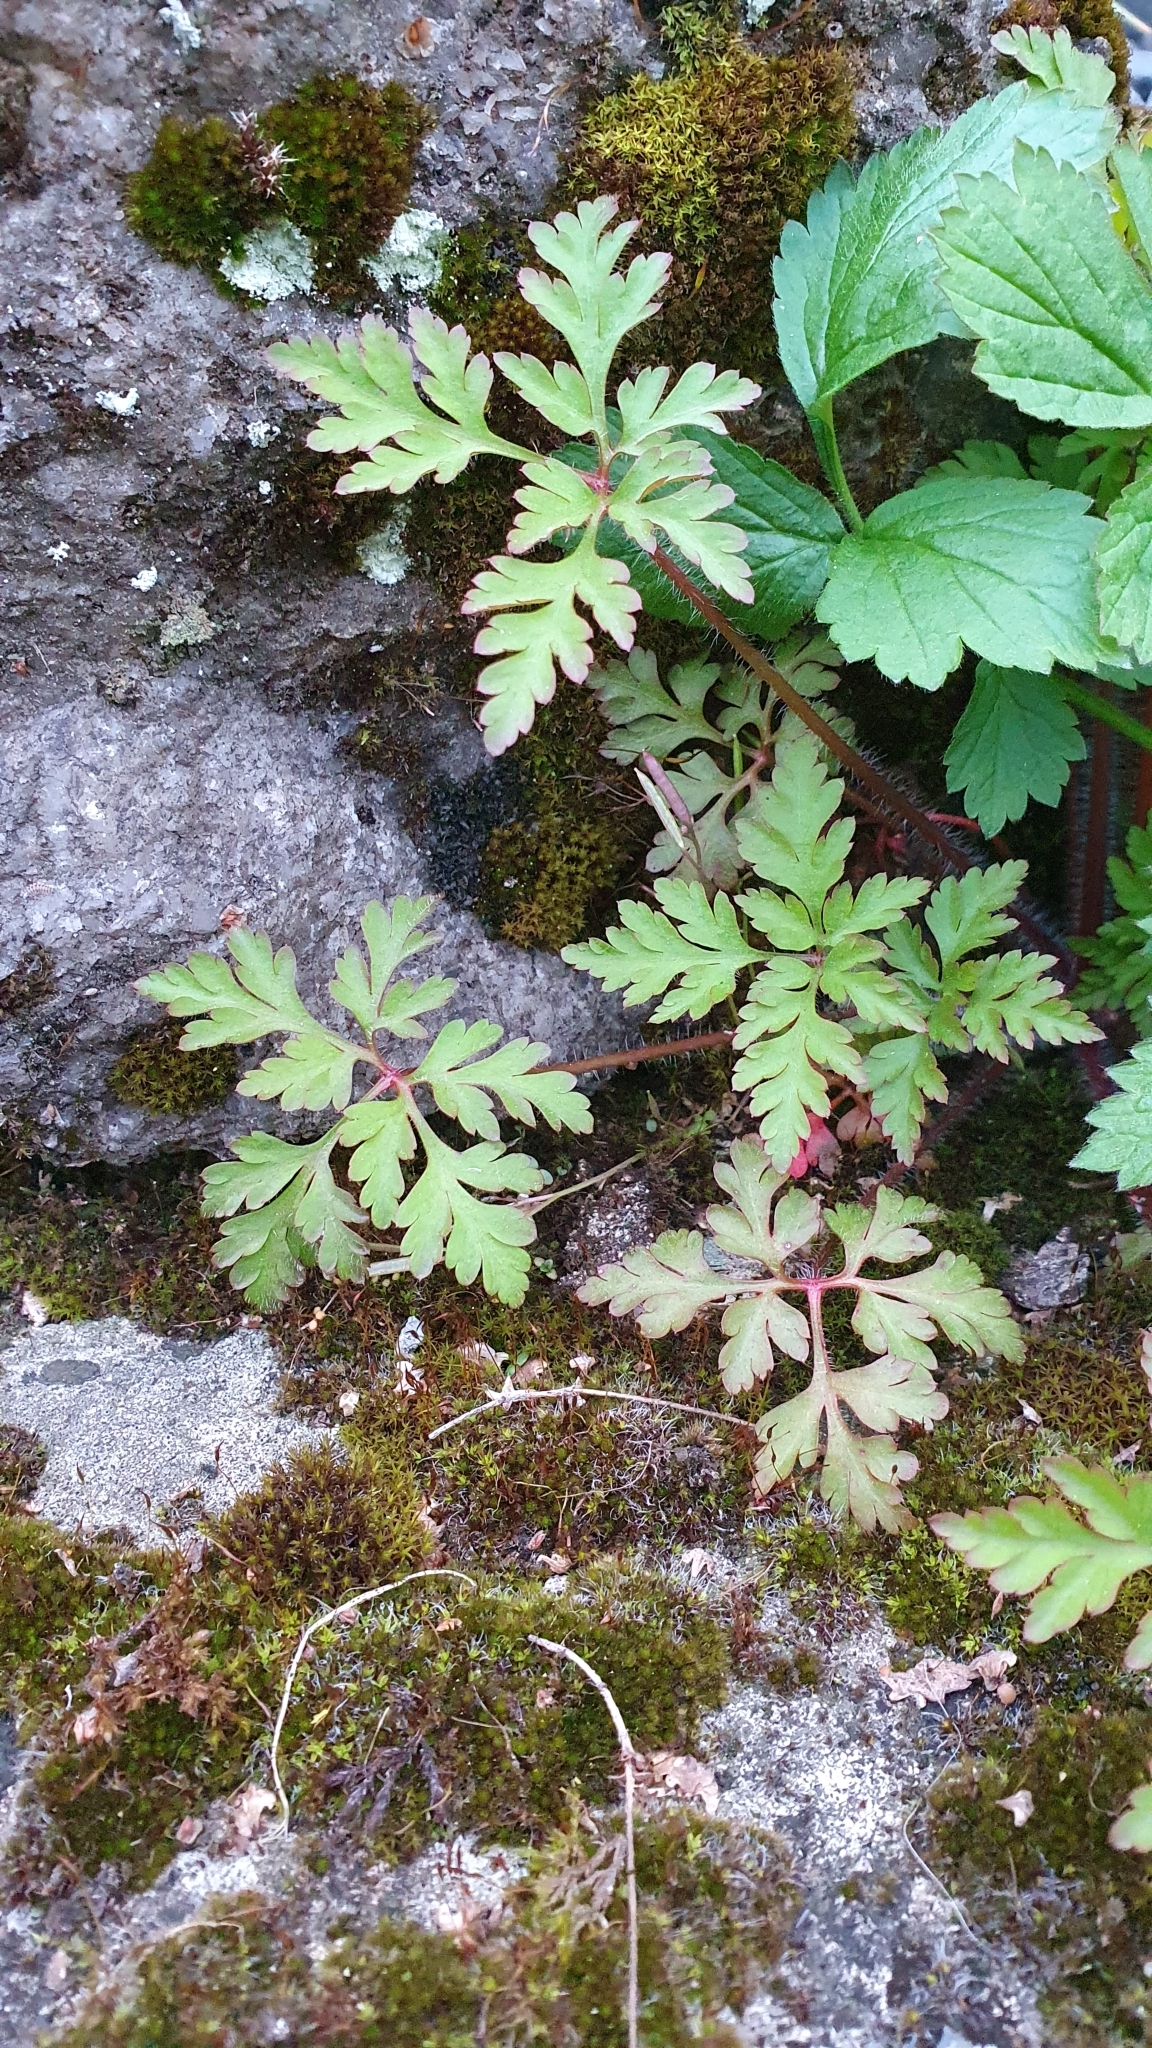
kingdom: Plantae
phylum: Tracheophyta
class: Magnoliopsida
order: Geraniales
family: Geraniaceae
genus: Geranium
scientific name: Geranium robertianum
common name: Herb-robert
